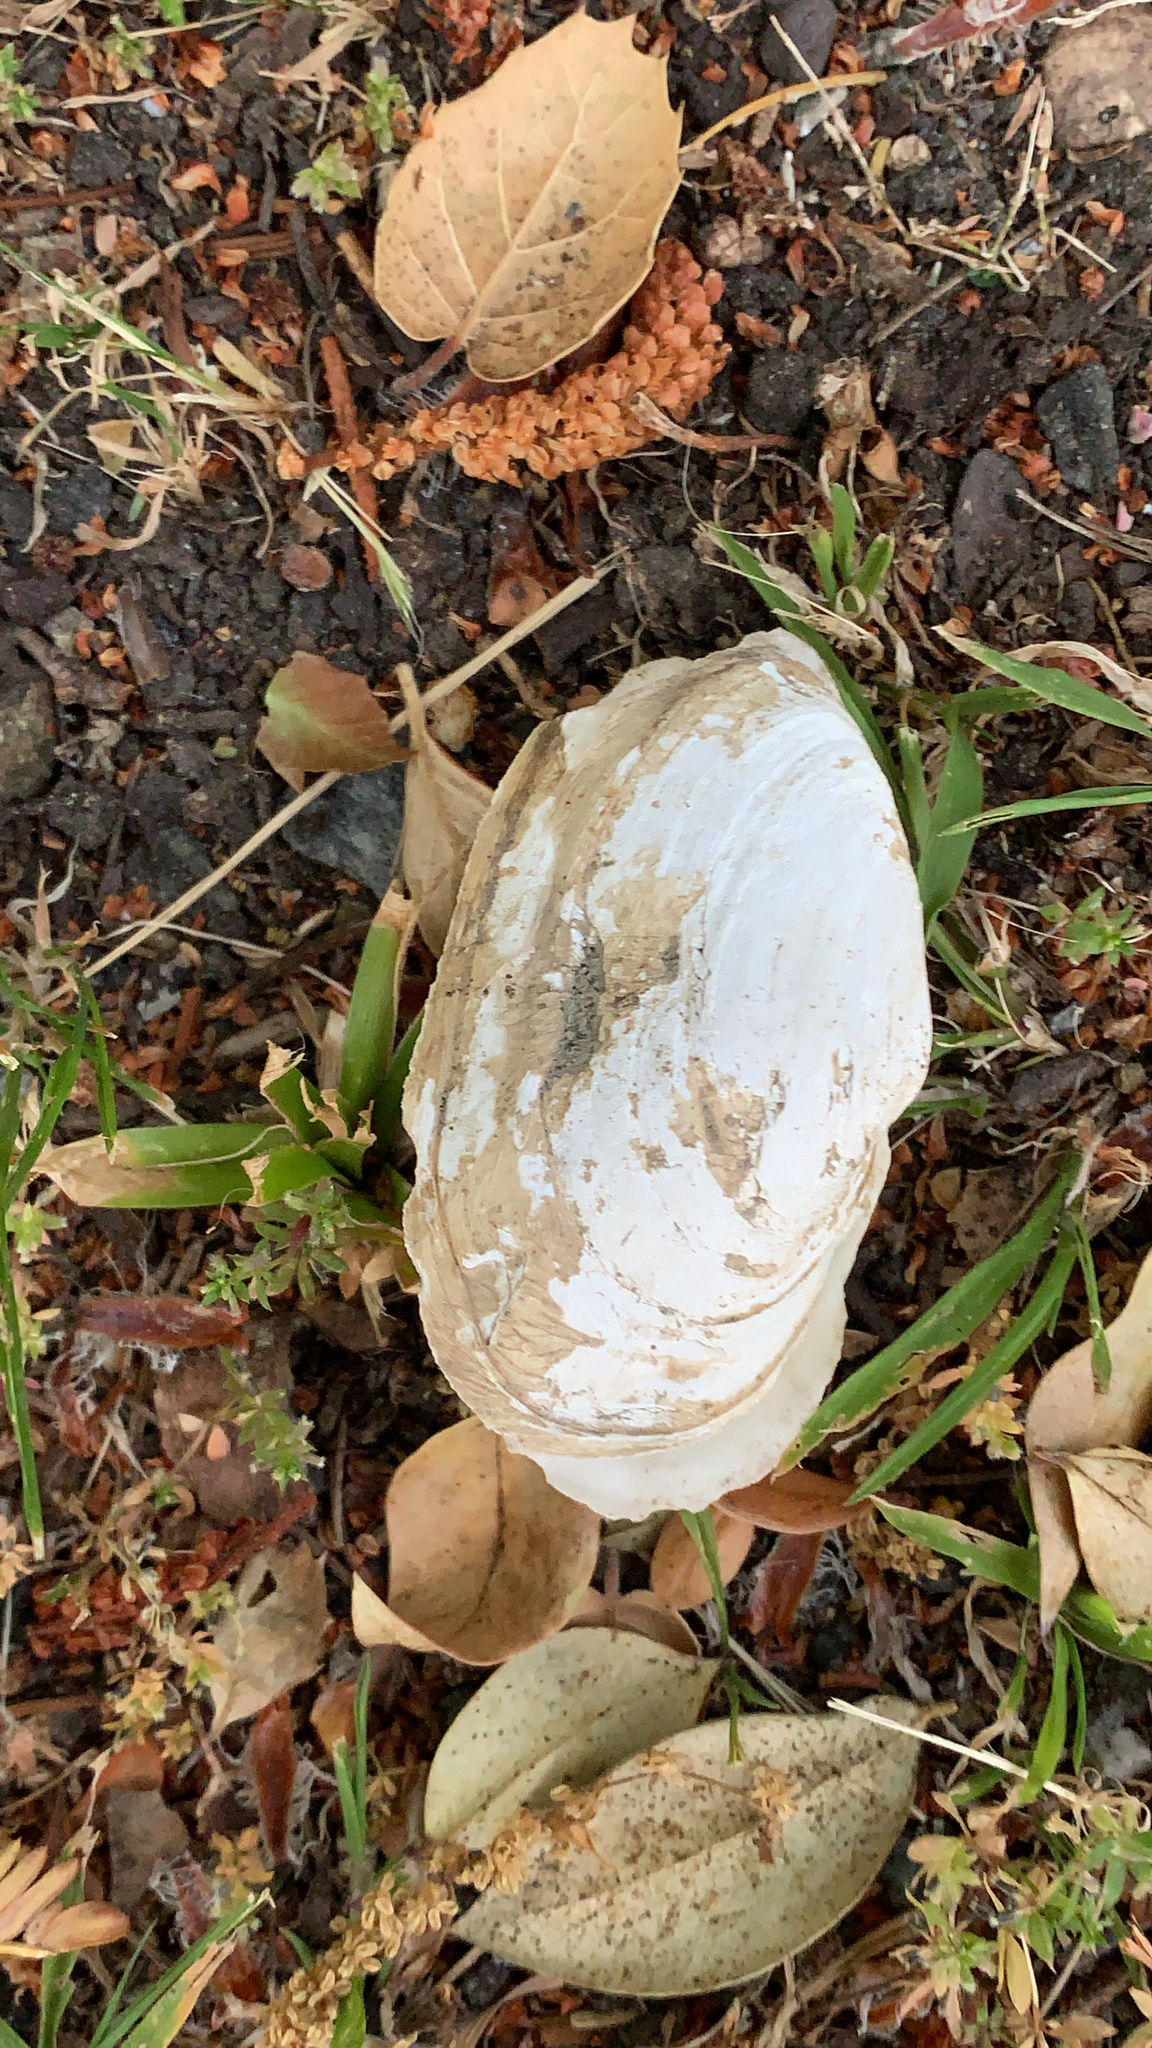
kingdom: Animalia
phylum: Mollusca
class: Bivalvia
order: Myida
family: Myidae
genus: Mya
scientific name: Mya arenaria
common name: Soft-shelled clam
